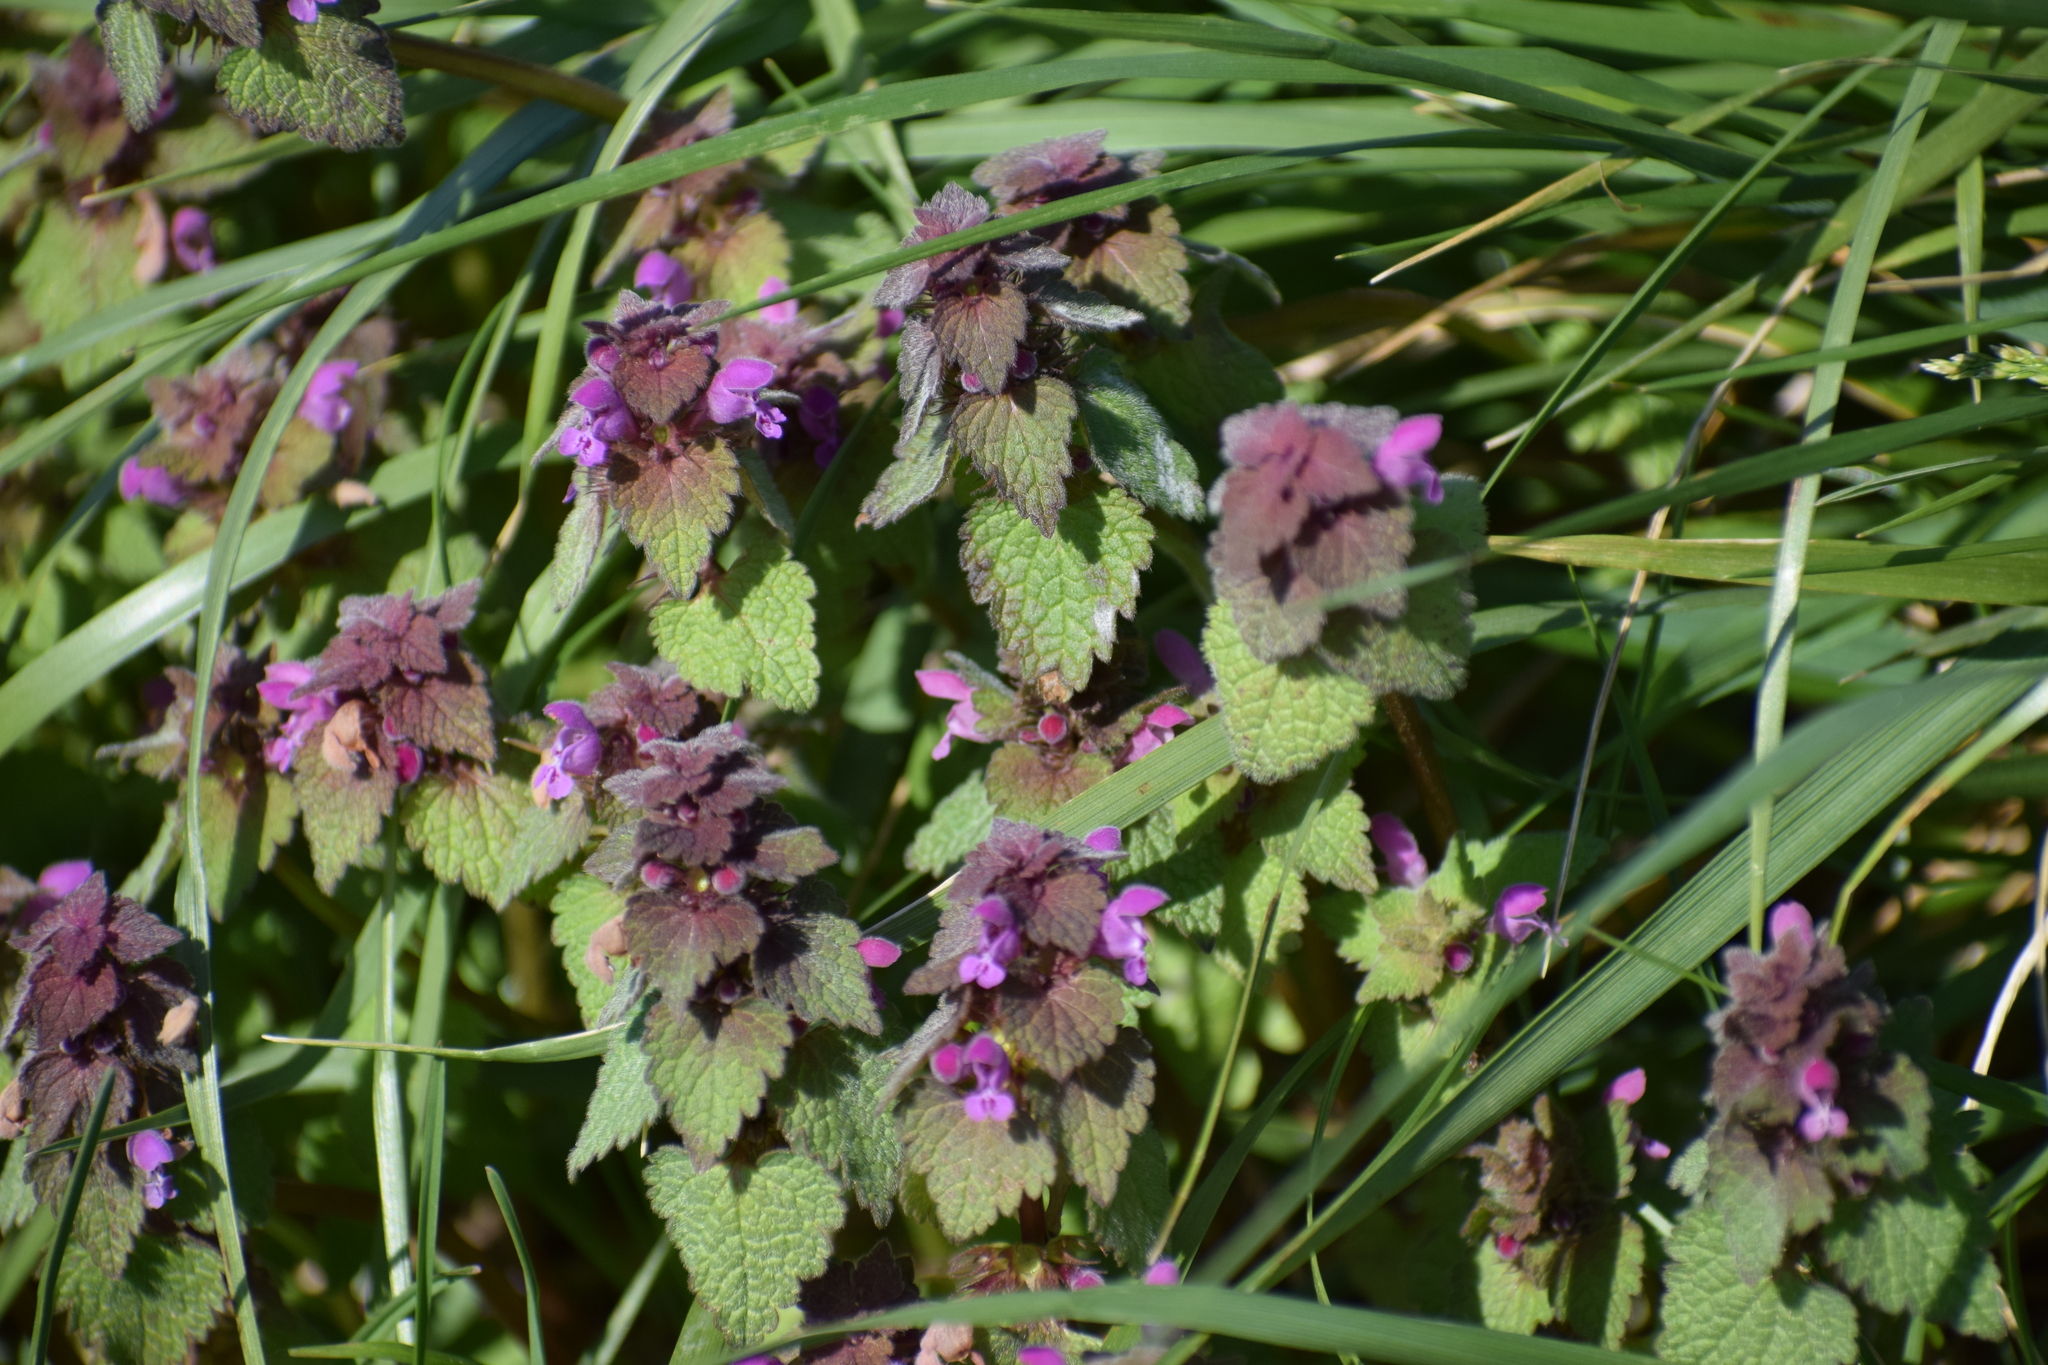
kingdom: Plantae
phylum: Tracheophyta
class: Magnoliopsida
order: Lamiales
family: Lamiaceae
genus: Lamium
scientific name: Lamium purpureum
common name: Red dead-nettle
